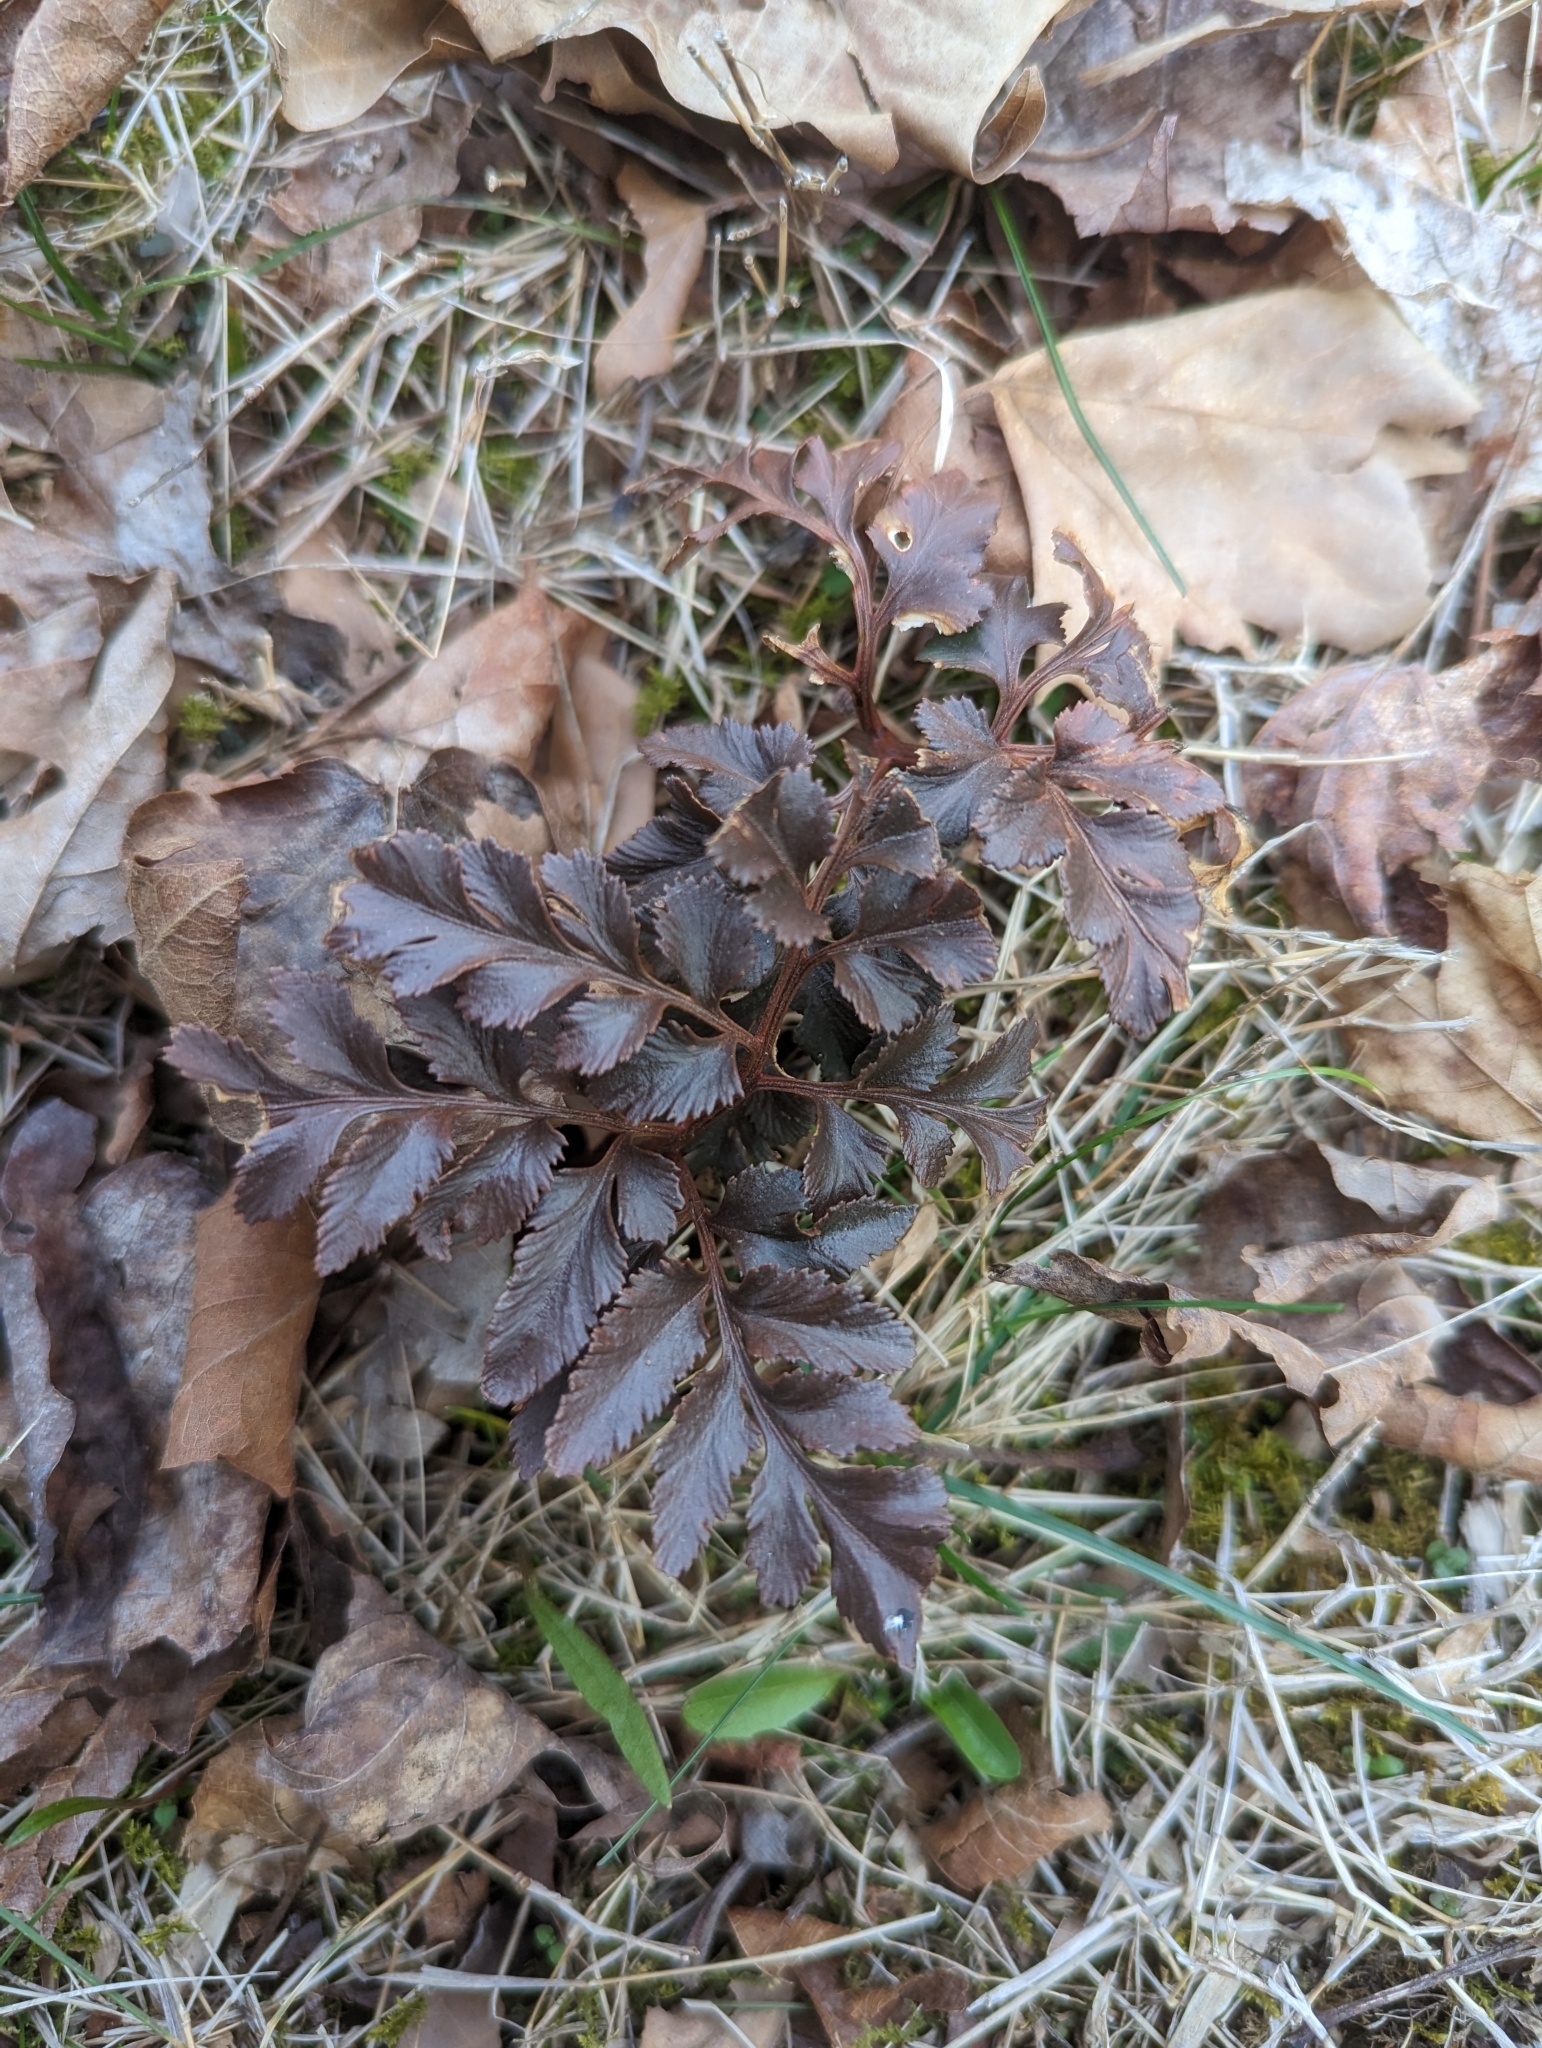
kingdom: Plantae
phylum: Tracheophyta
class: Polypodiopsida
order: Ophioglossales
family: Ophioglossaceae
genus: Sceptridium
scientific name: Sceptridium dissectum
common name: Cut-leaved grapefern
